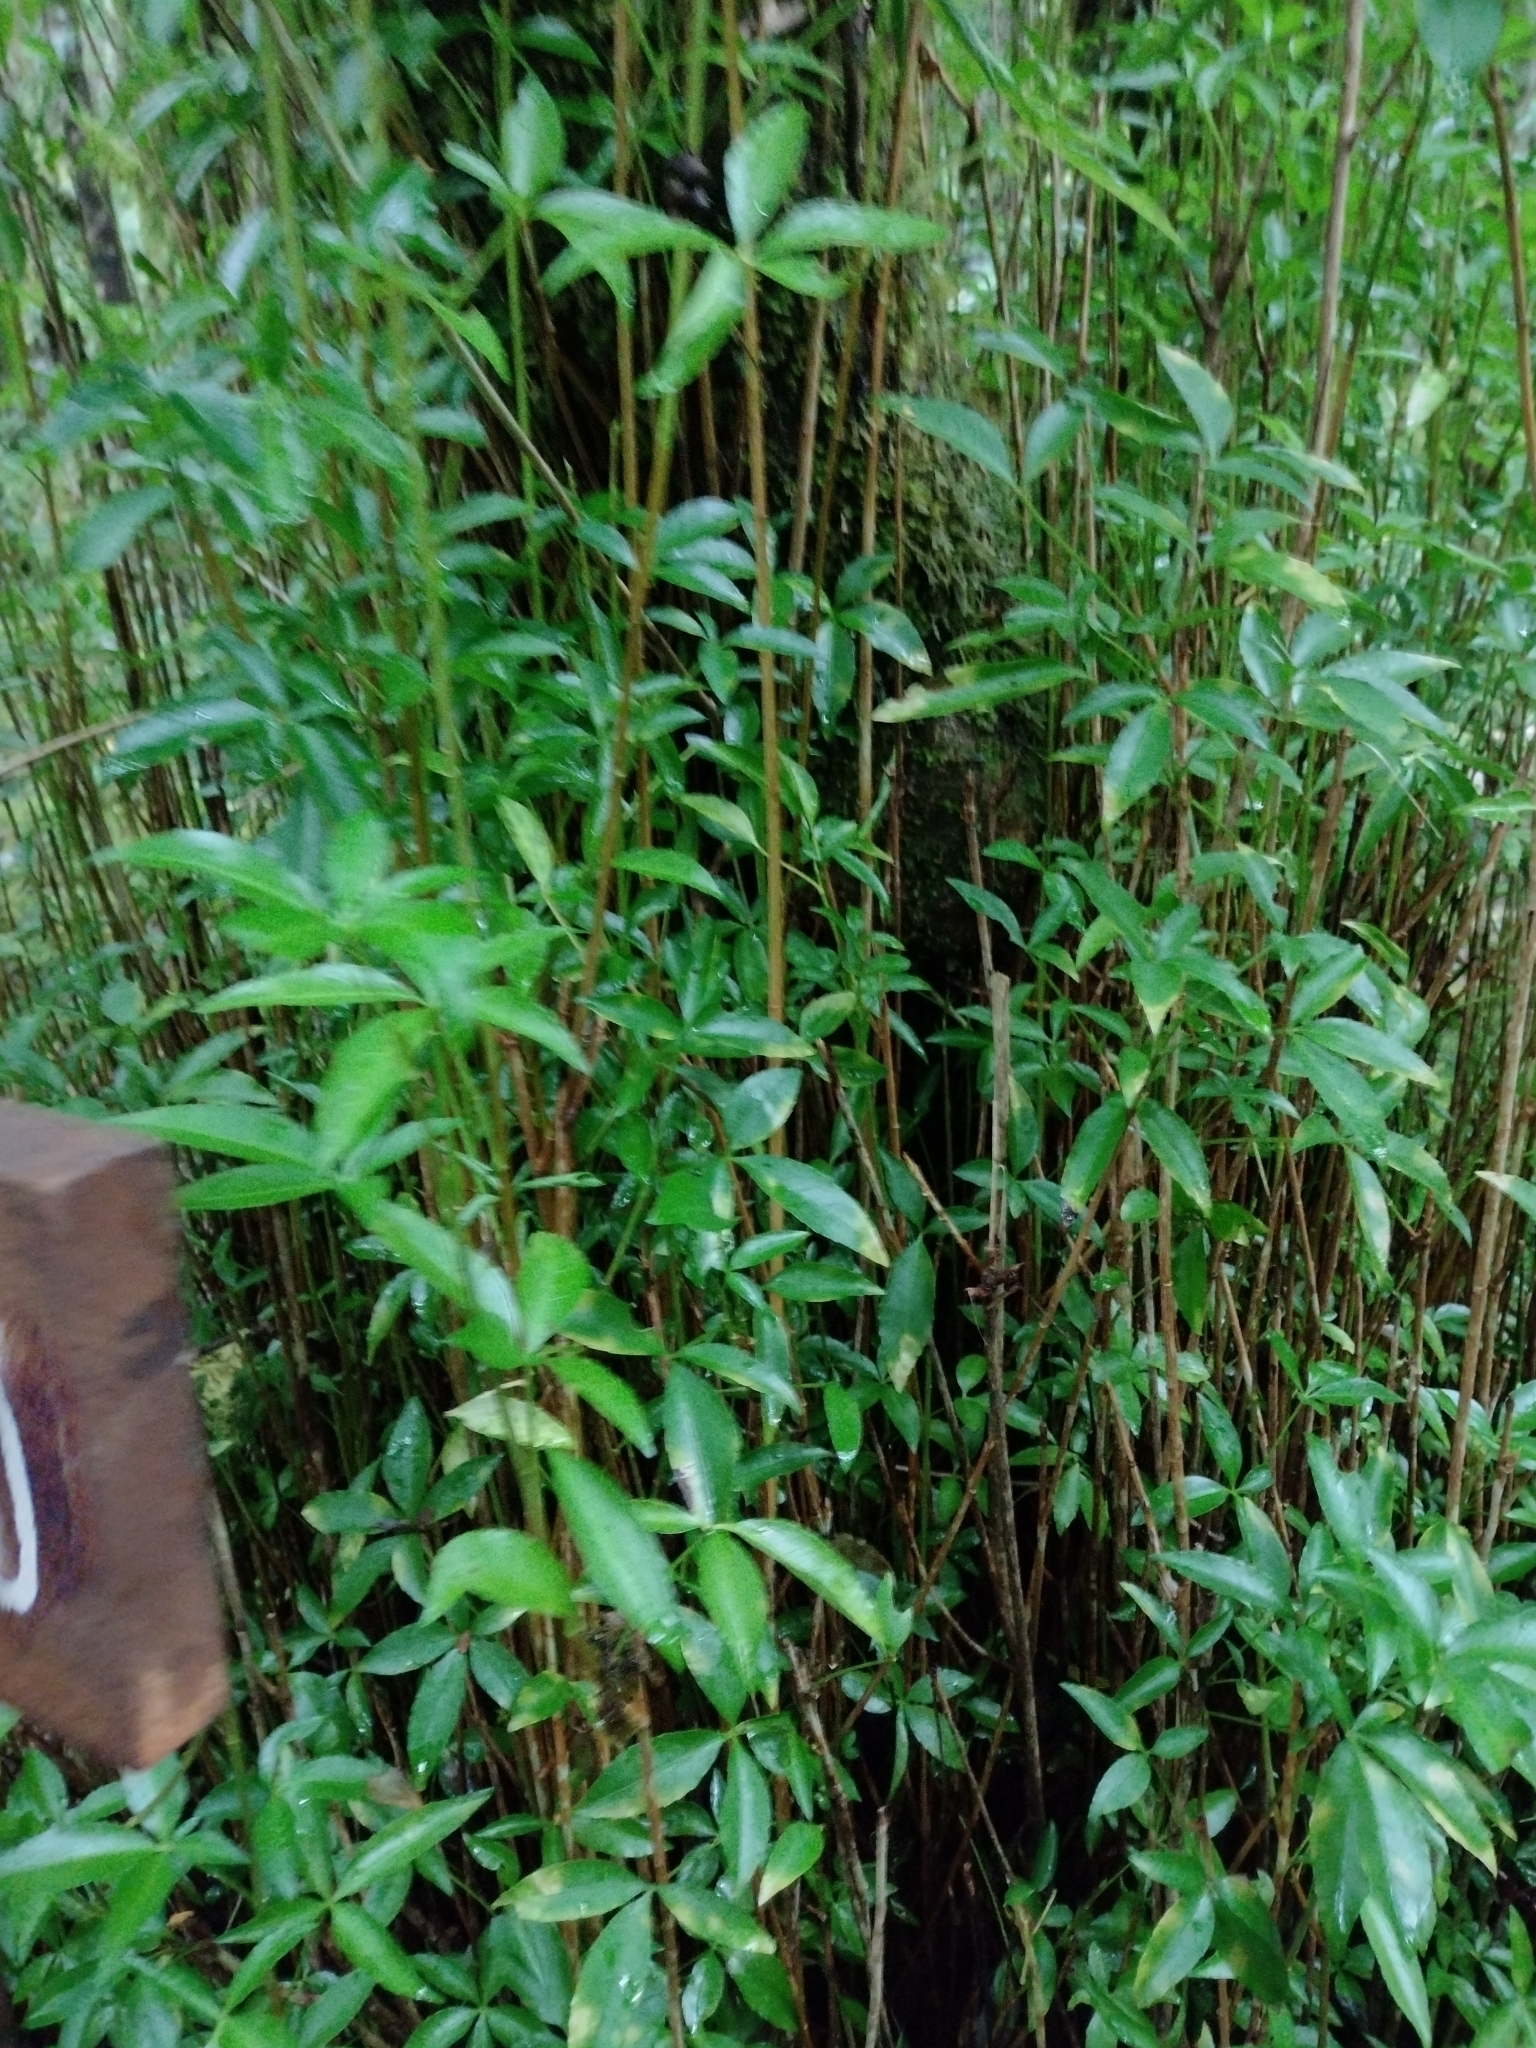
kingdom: Plantae
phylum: Tracheophyta
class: Magnoliopsida
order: Apiales
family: Araliaceae
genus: Raukaua
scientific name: Raukaua laetevirens
